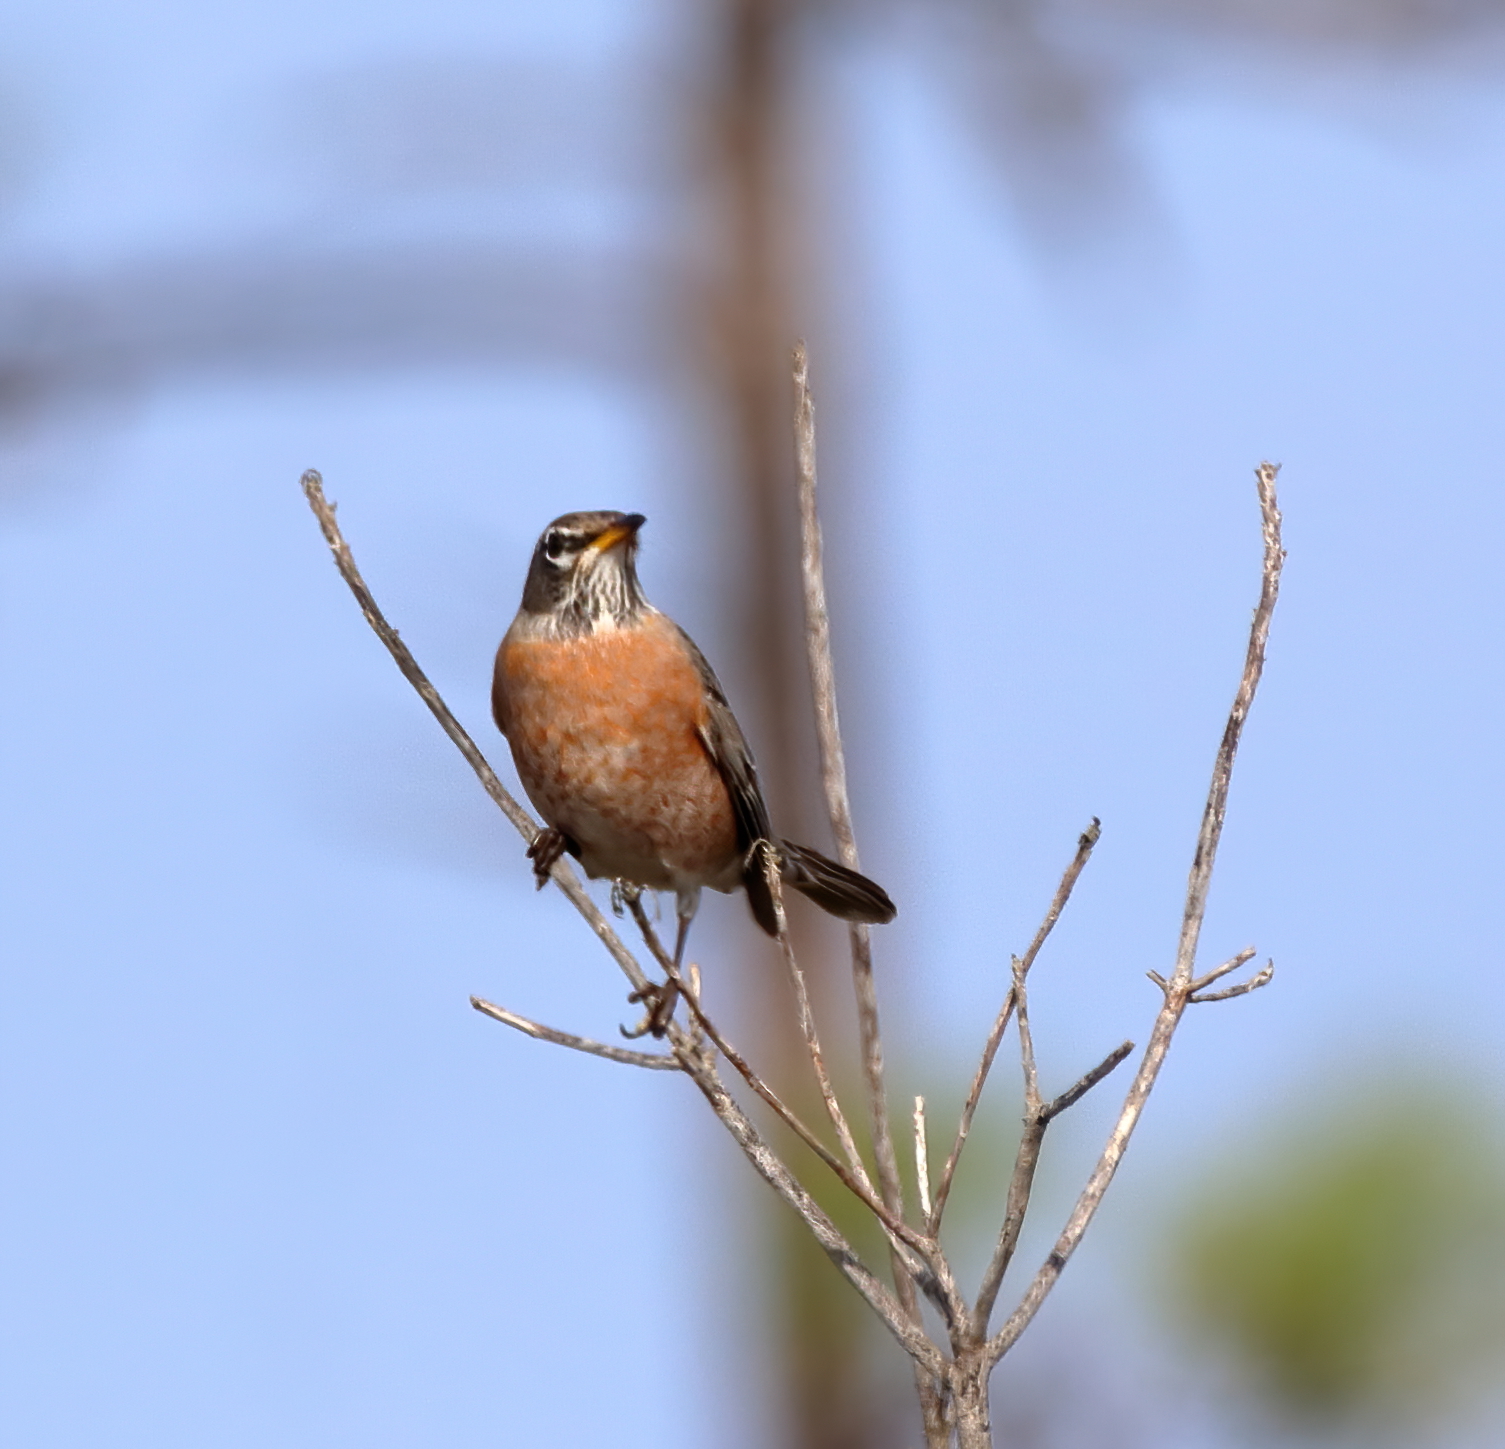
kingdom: Animalia
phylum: Chordata
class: Aves
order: Passeriformes
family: Turdidae
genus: Turdus
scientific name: Turdus migratorius
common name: American robin
